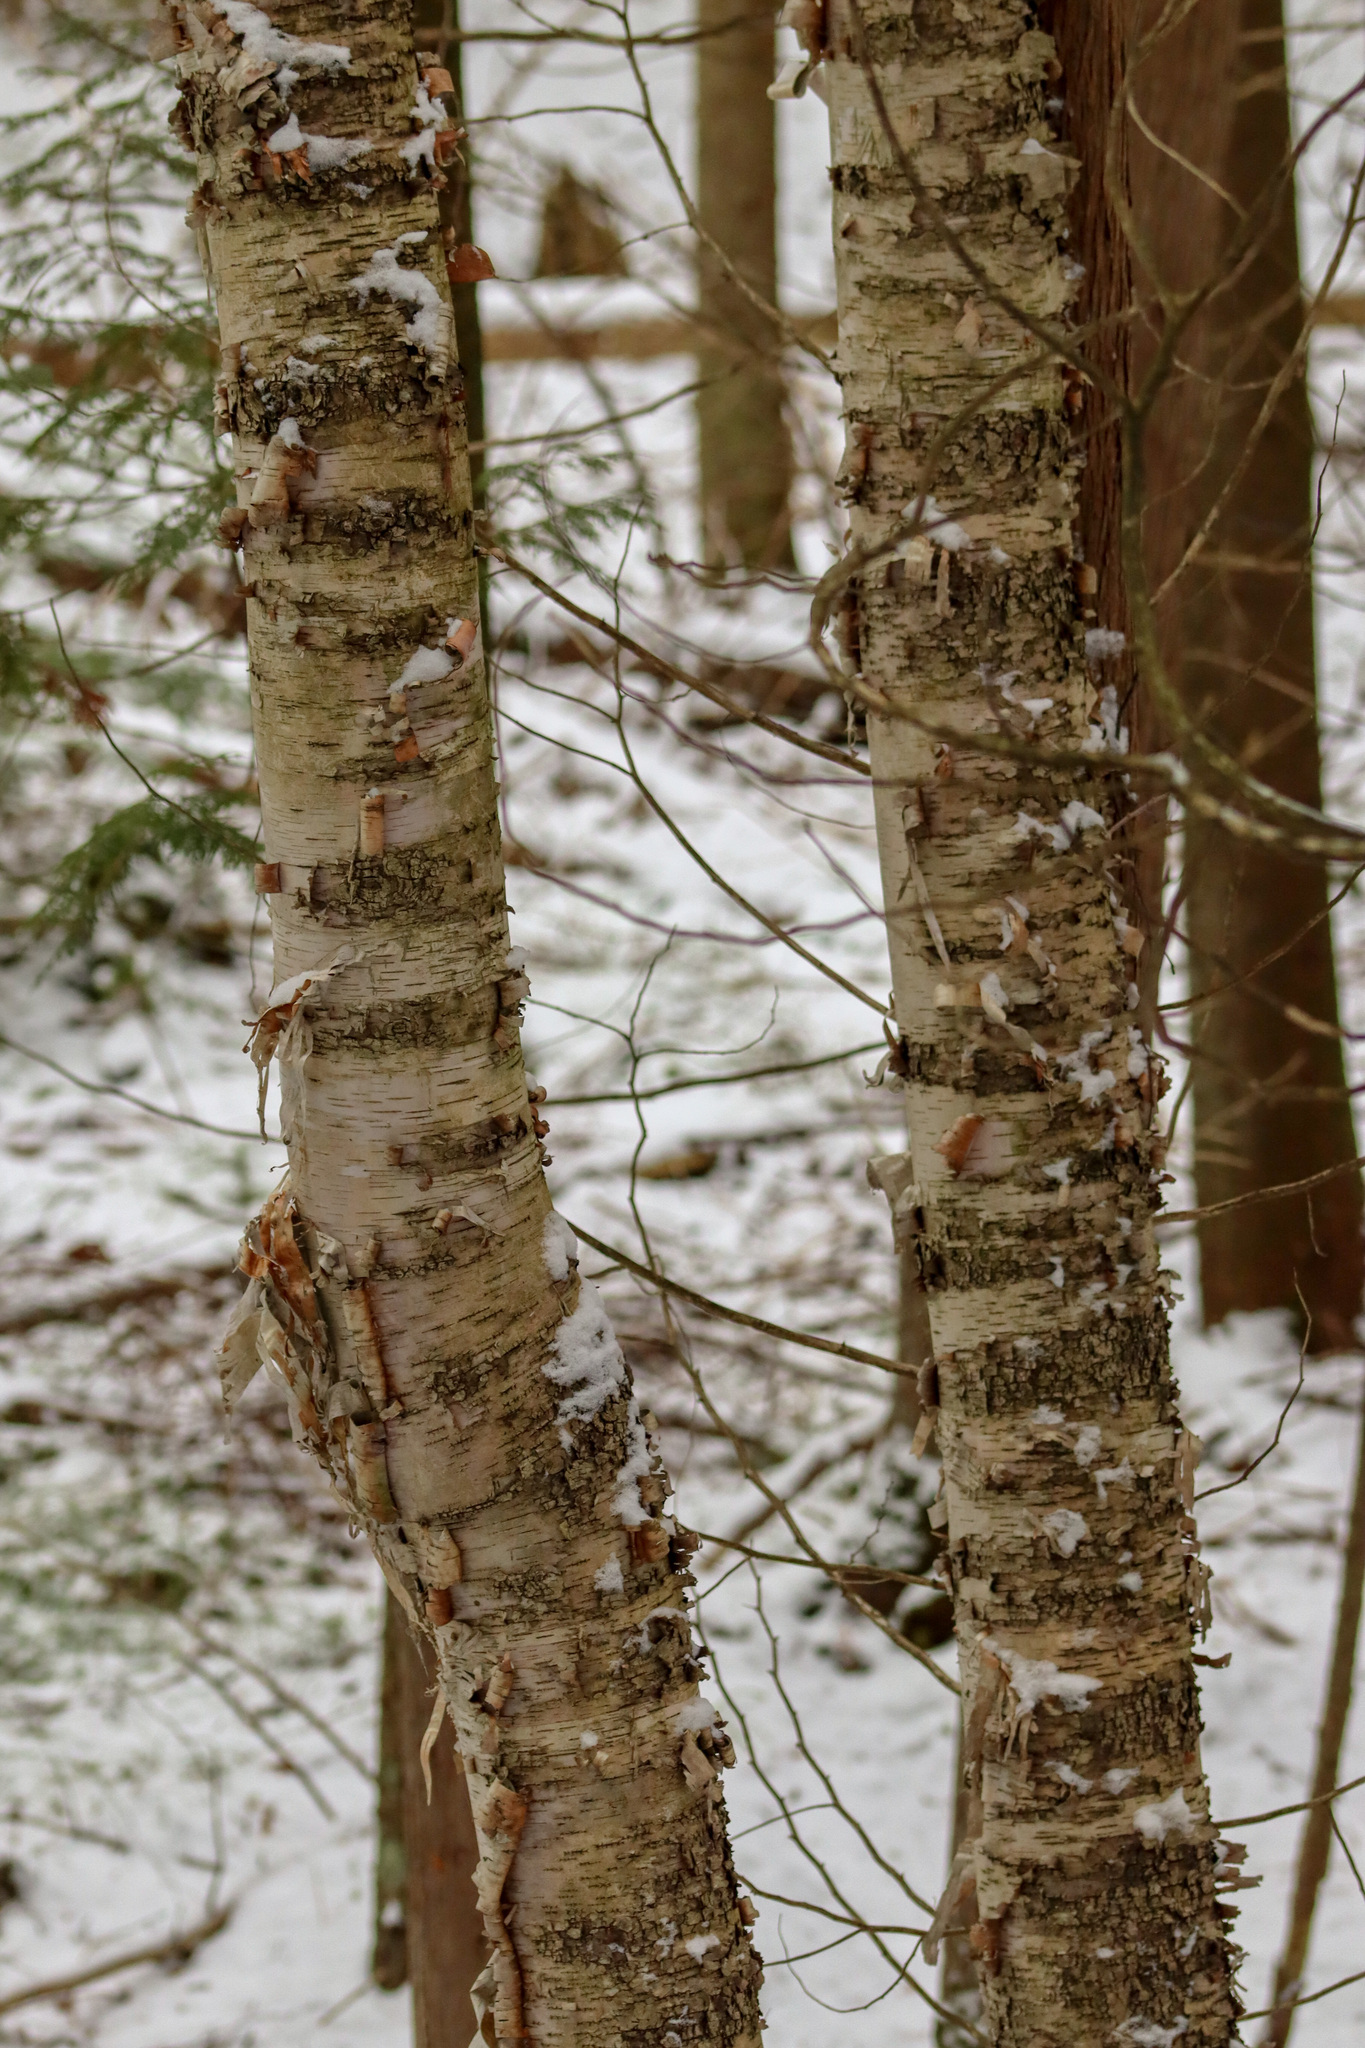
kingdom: Plantae
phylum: Tracheophyta
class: Magnoliopsida
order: Fagales
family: Betulaceae
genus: Betula
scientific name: Betula papyrifera
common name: Paper birch
